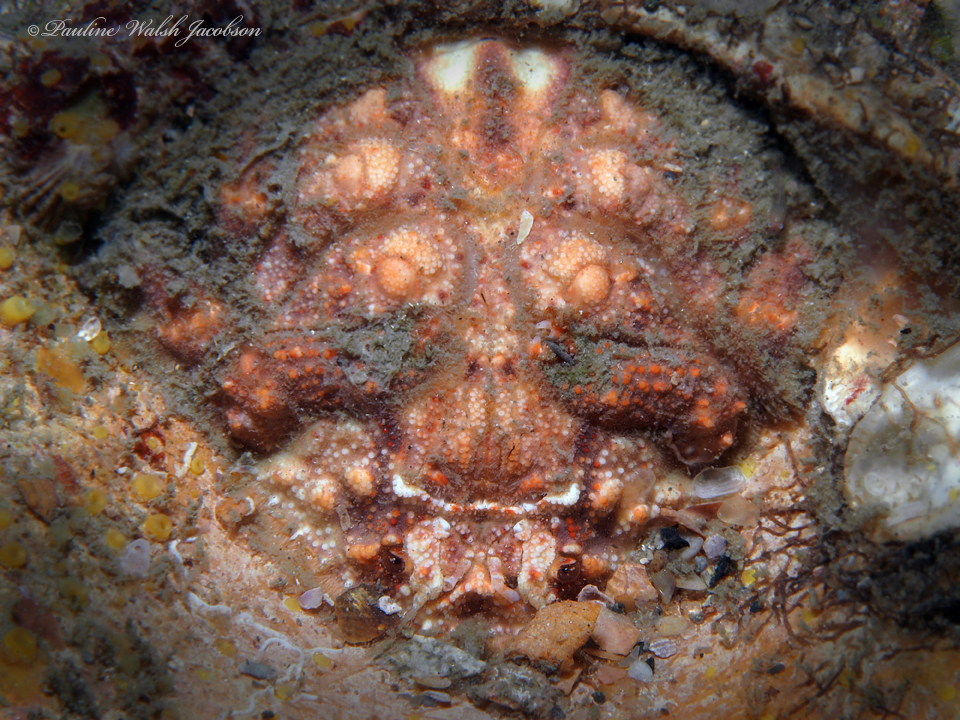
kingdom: Animalia
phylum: Arthropoda
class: Malacostraca
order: Decapoda
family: Dromiidae
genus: Hypoconcha
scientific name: Hypoconcha parasitica
